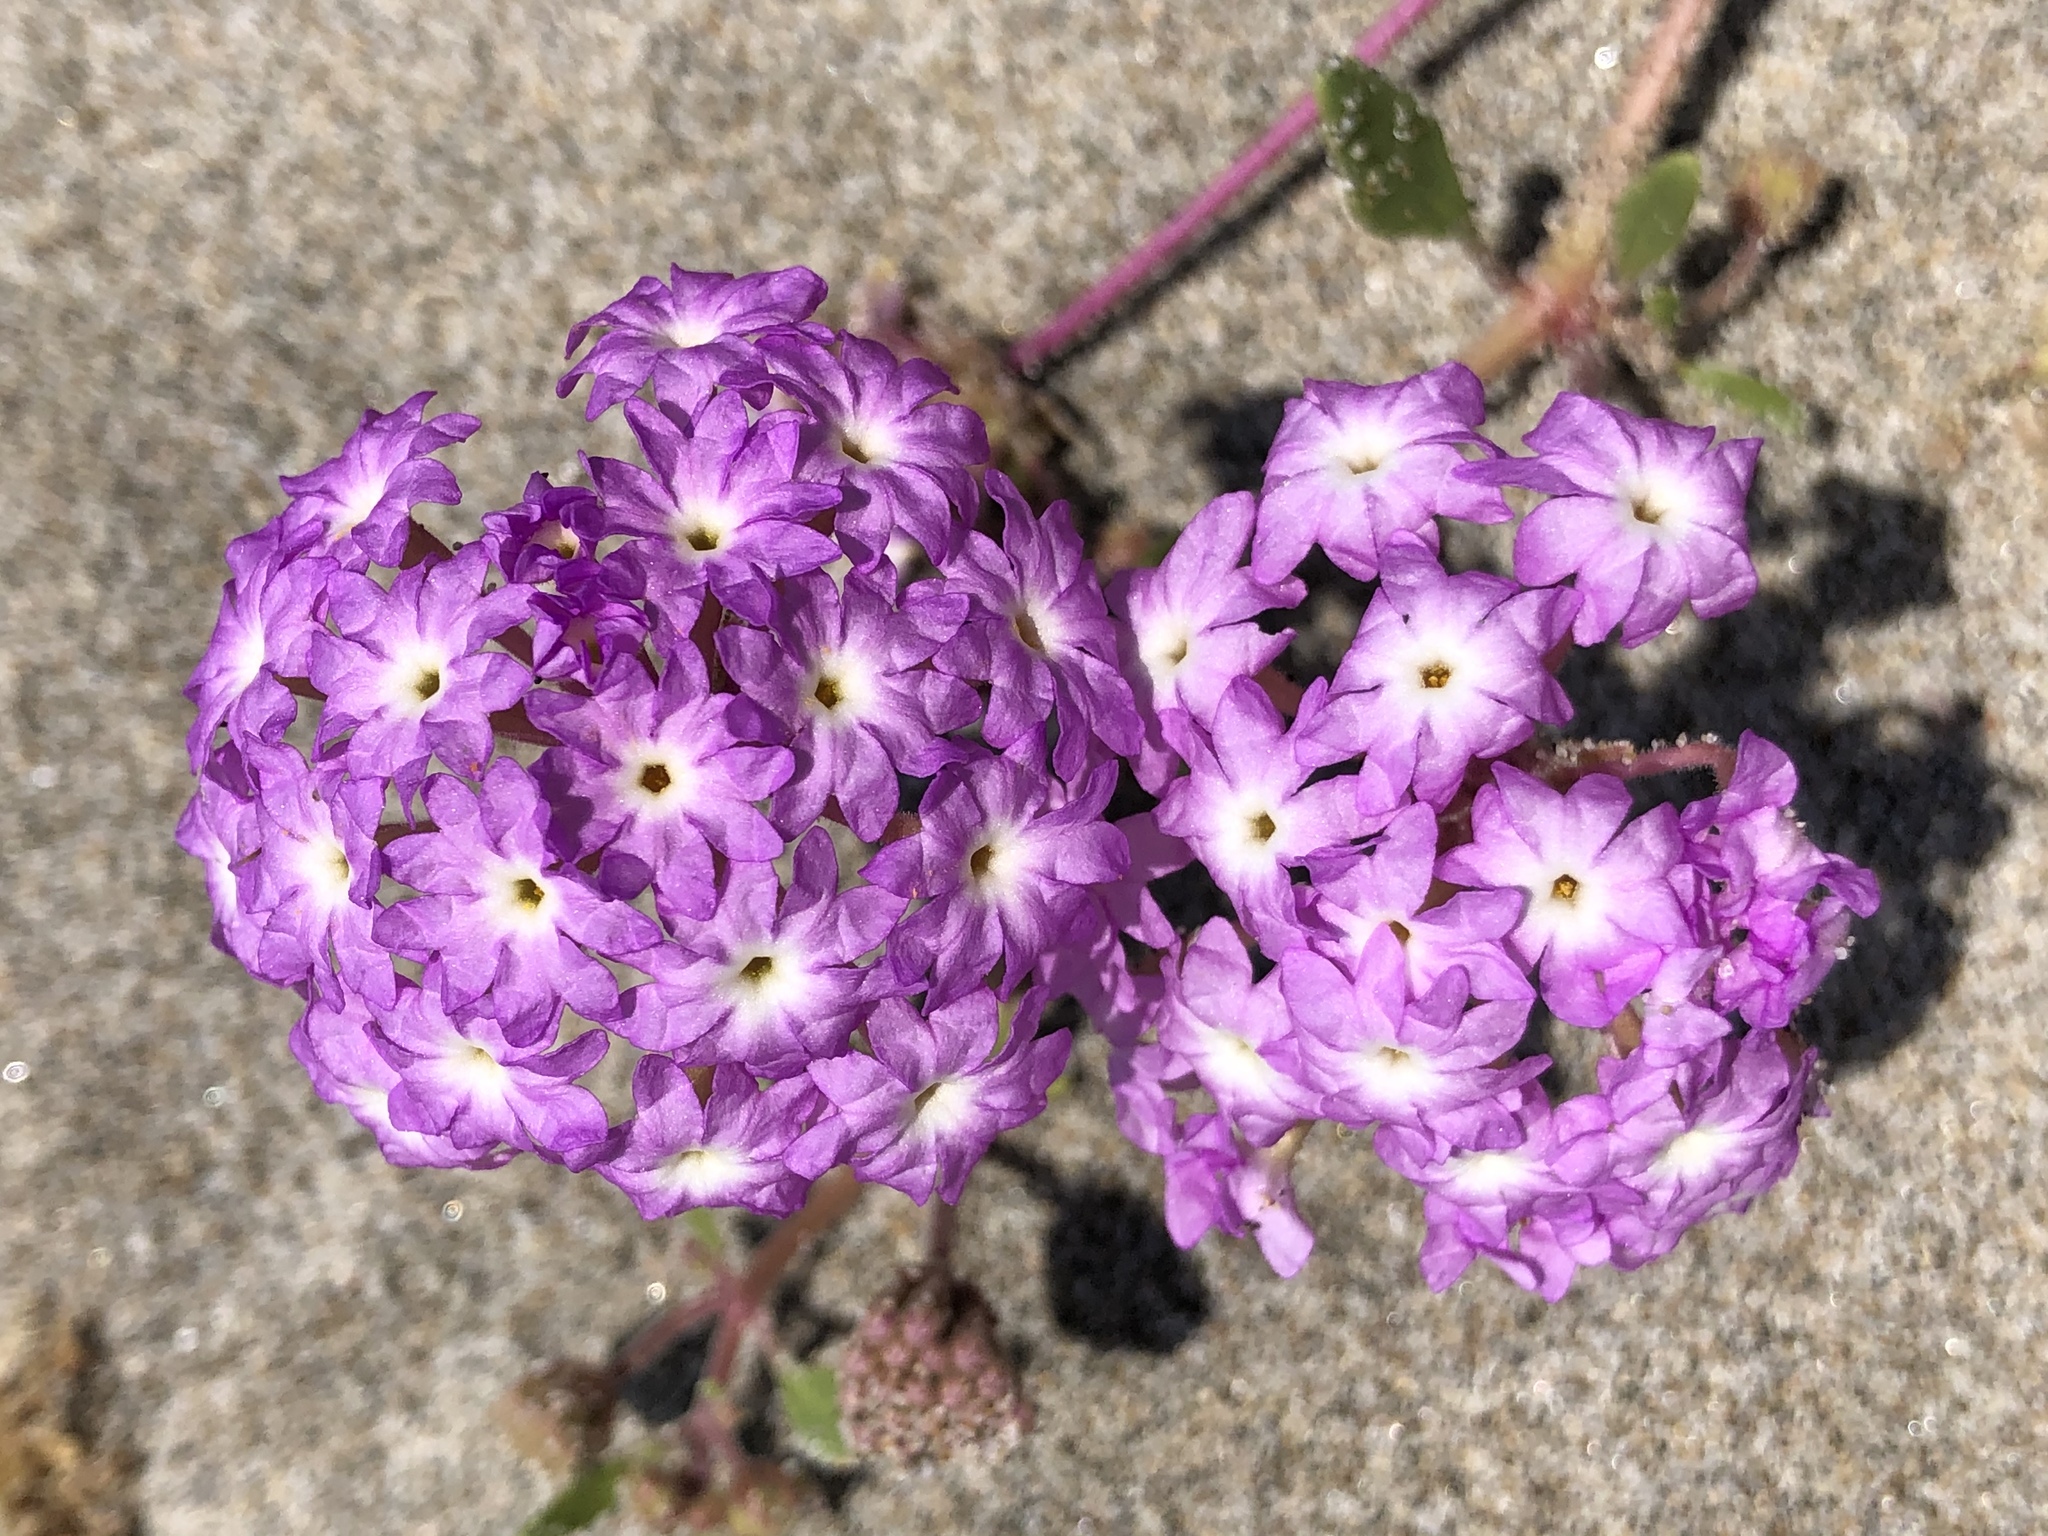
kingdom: Plantae
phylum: Tracheophyta
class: Magnoliopsida
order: Caryophyllales
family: Nyctaginaceae
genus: Abronia
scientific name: Abronia umbellata
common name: Sand-verbena
